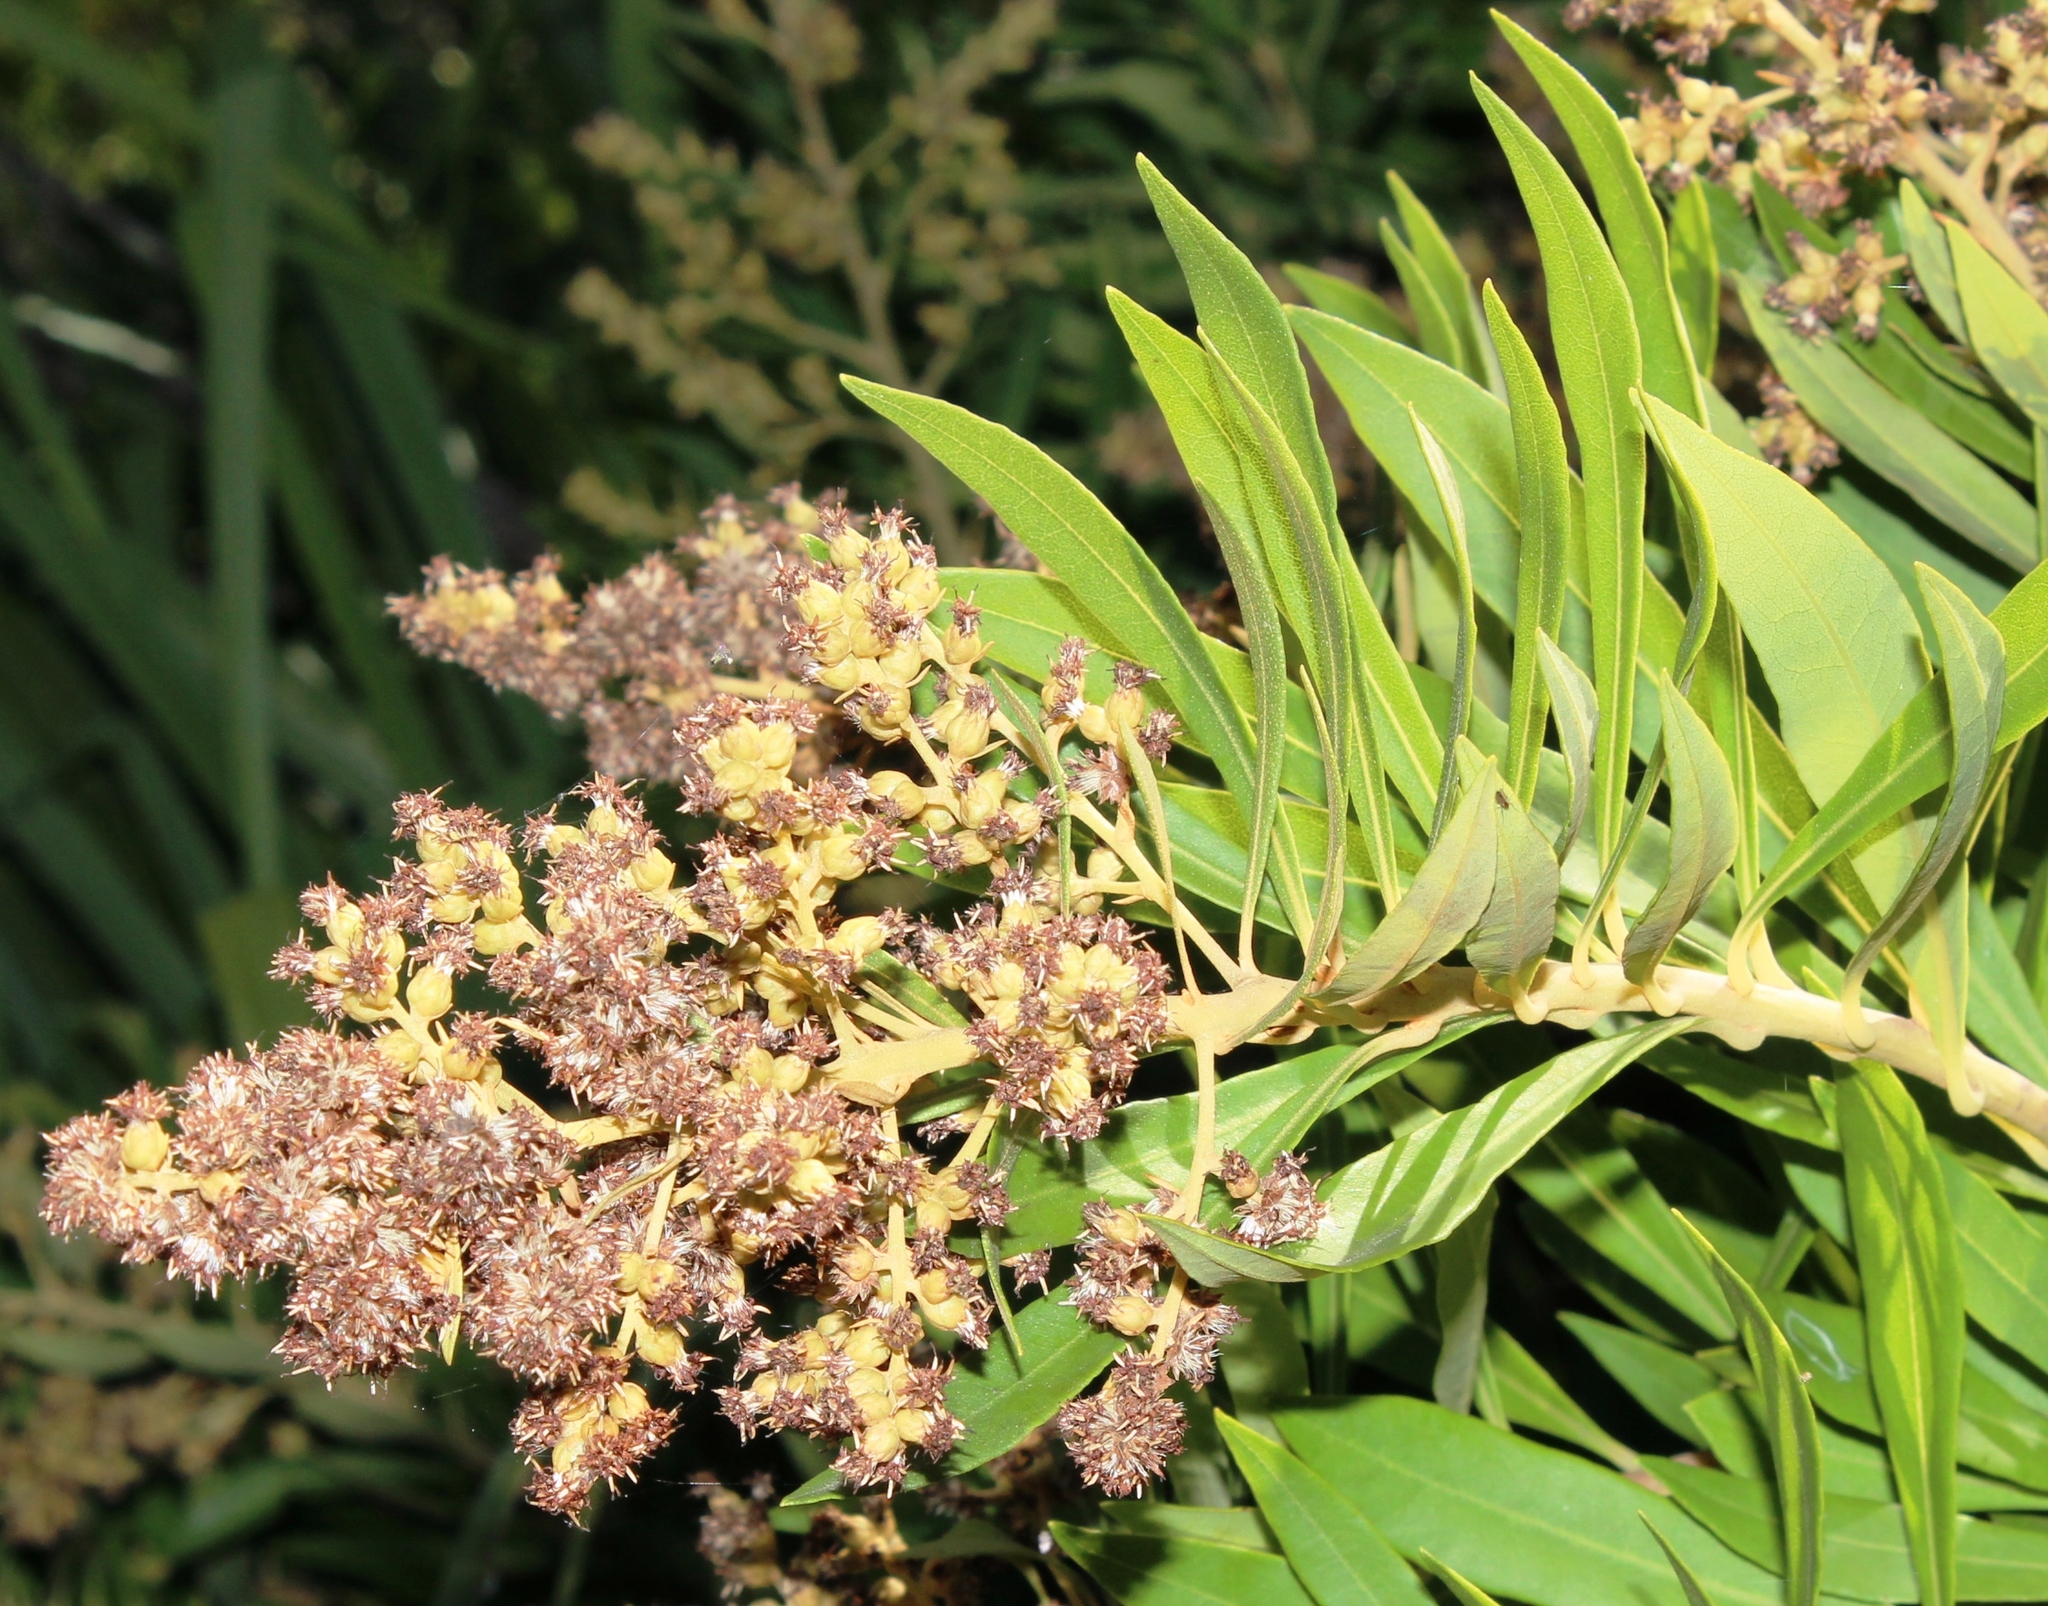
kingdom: Plantae
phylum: Tracheophyta
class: Magnoliopsida
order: Asterales
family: Asteraceae
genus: Brachylaena
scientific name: Brachylaena neriifolia
